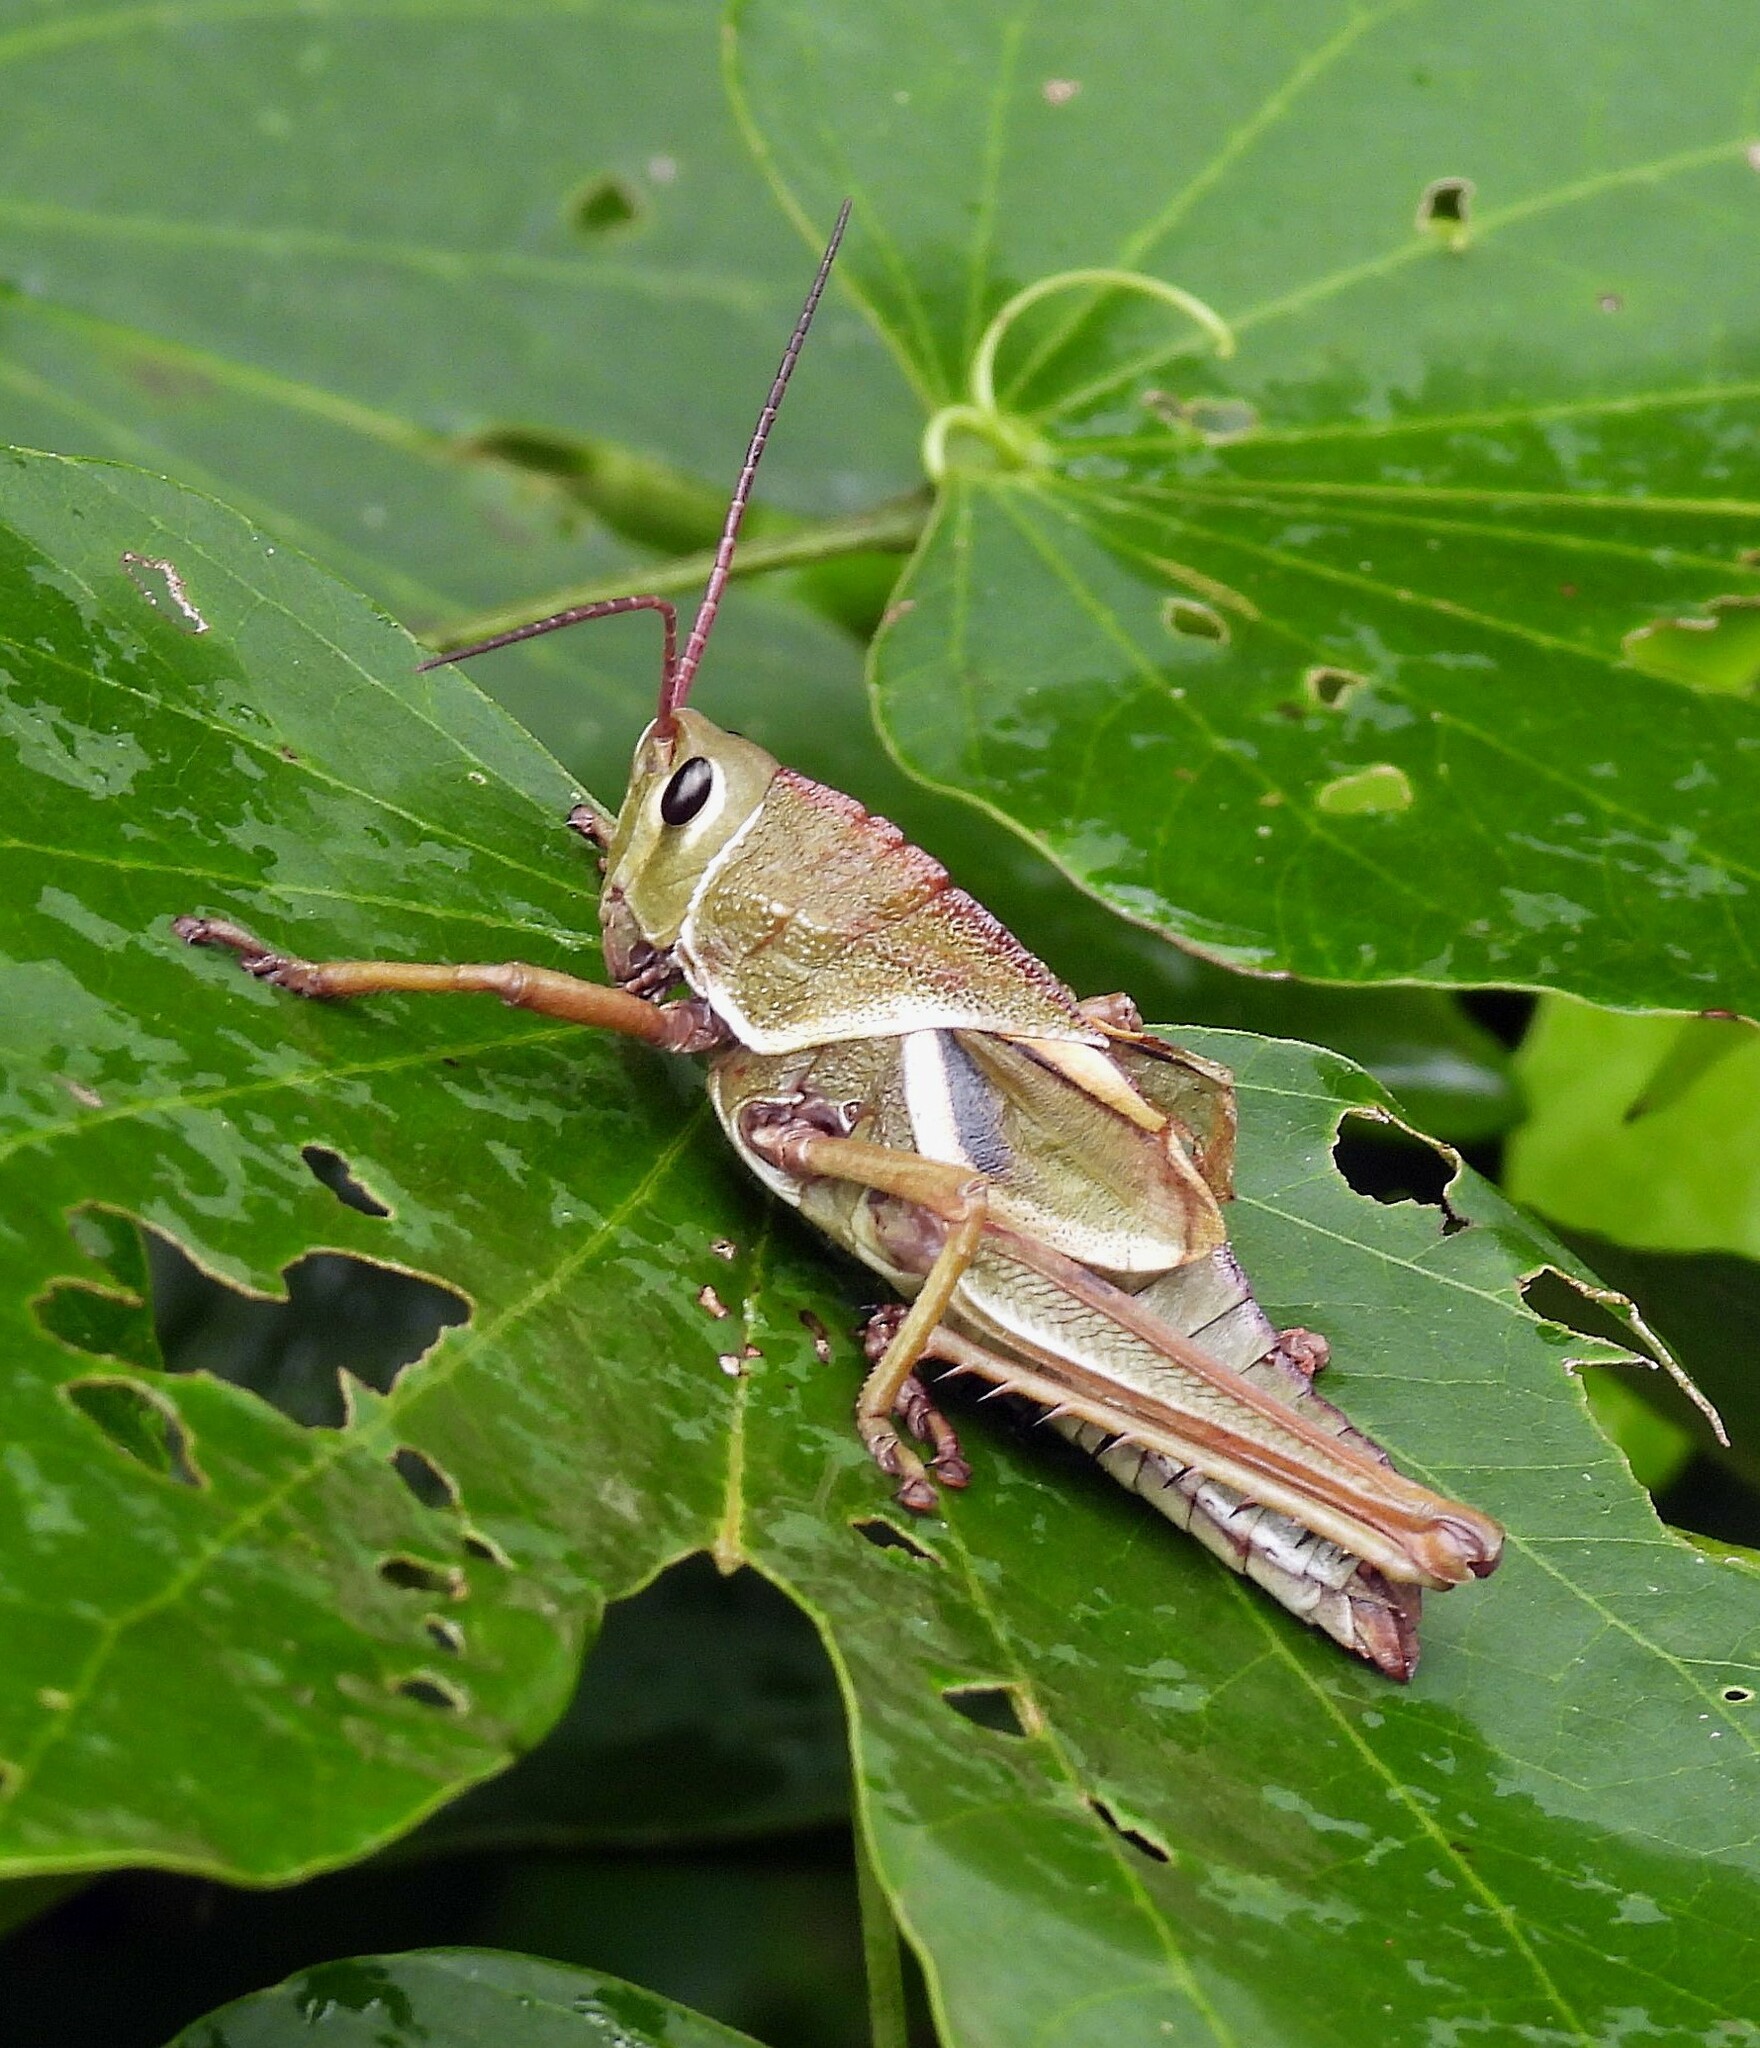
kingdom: Animalia
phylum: Arthropoda
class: Insecta
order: Orthoptera
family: Romaleidae
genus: Staleochlora
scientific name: Staleochlora arcuata
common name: Paraná purple-backed grasshopper
